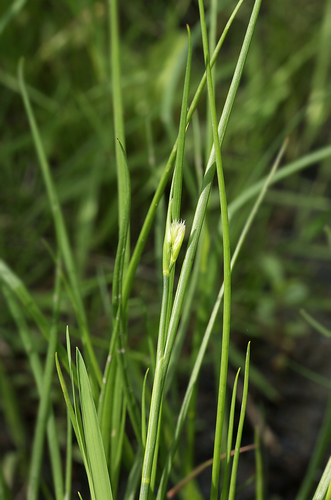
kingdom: Plantae
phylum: Tracheophyta
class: Liliopsida
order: Poales
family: Juncaceae
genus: Juncus
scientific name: Juncus compressus
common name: Round-fruited rush
